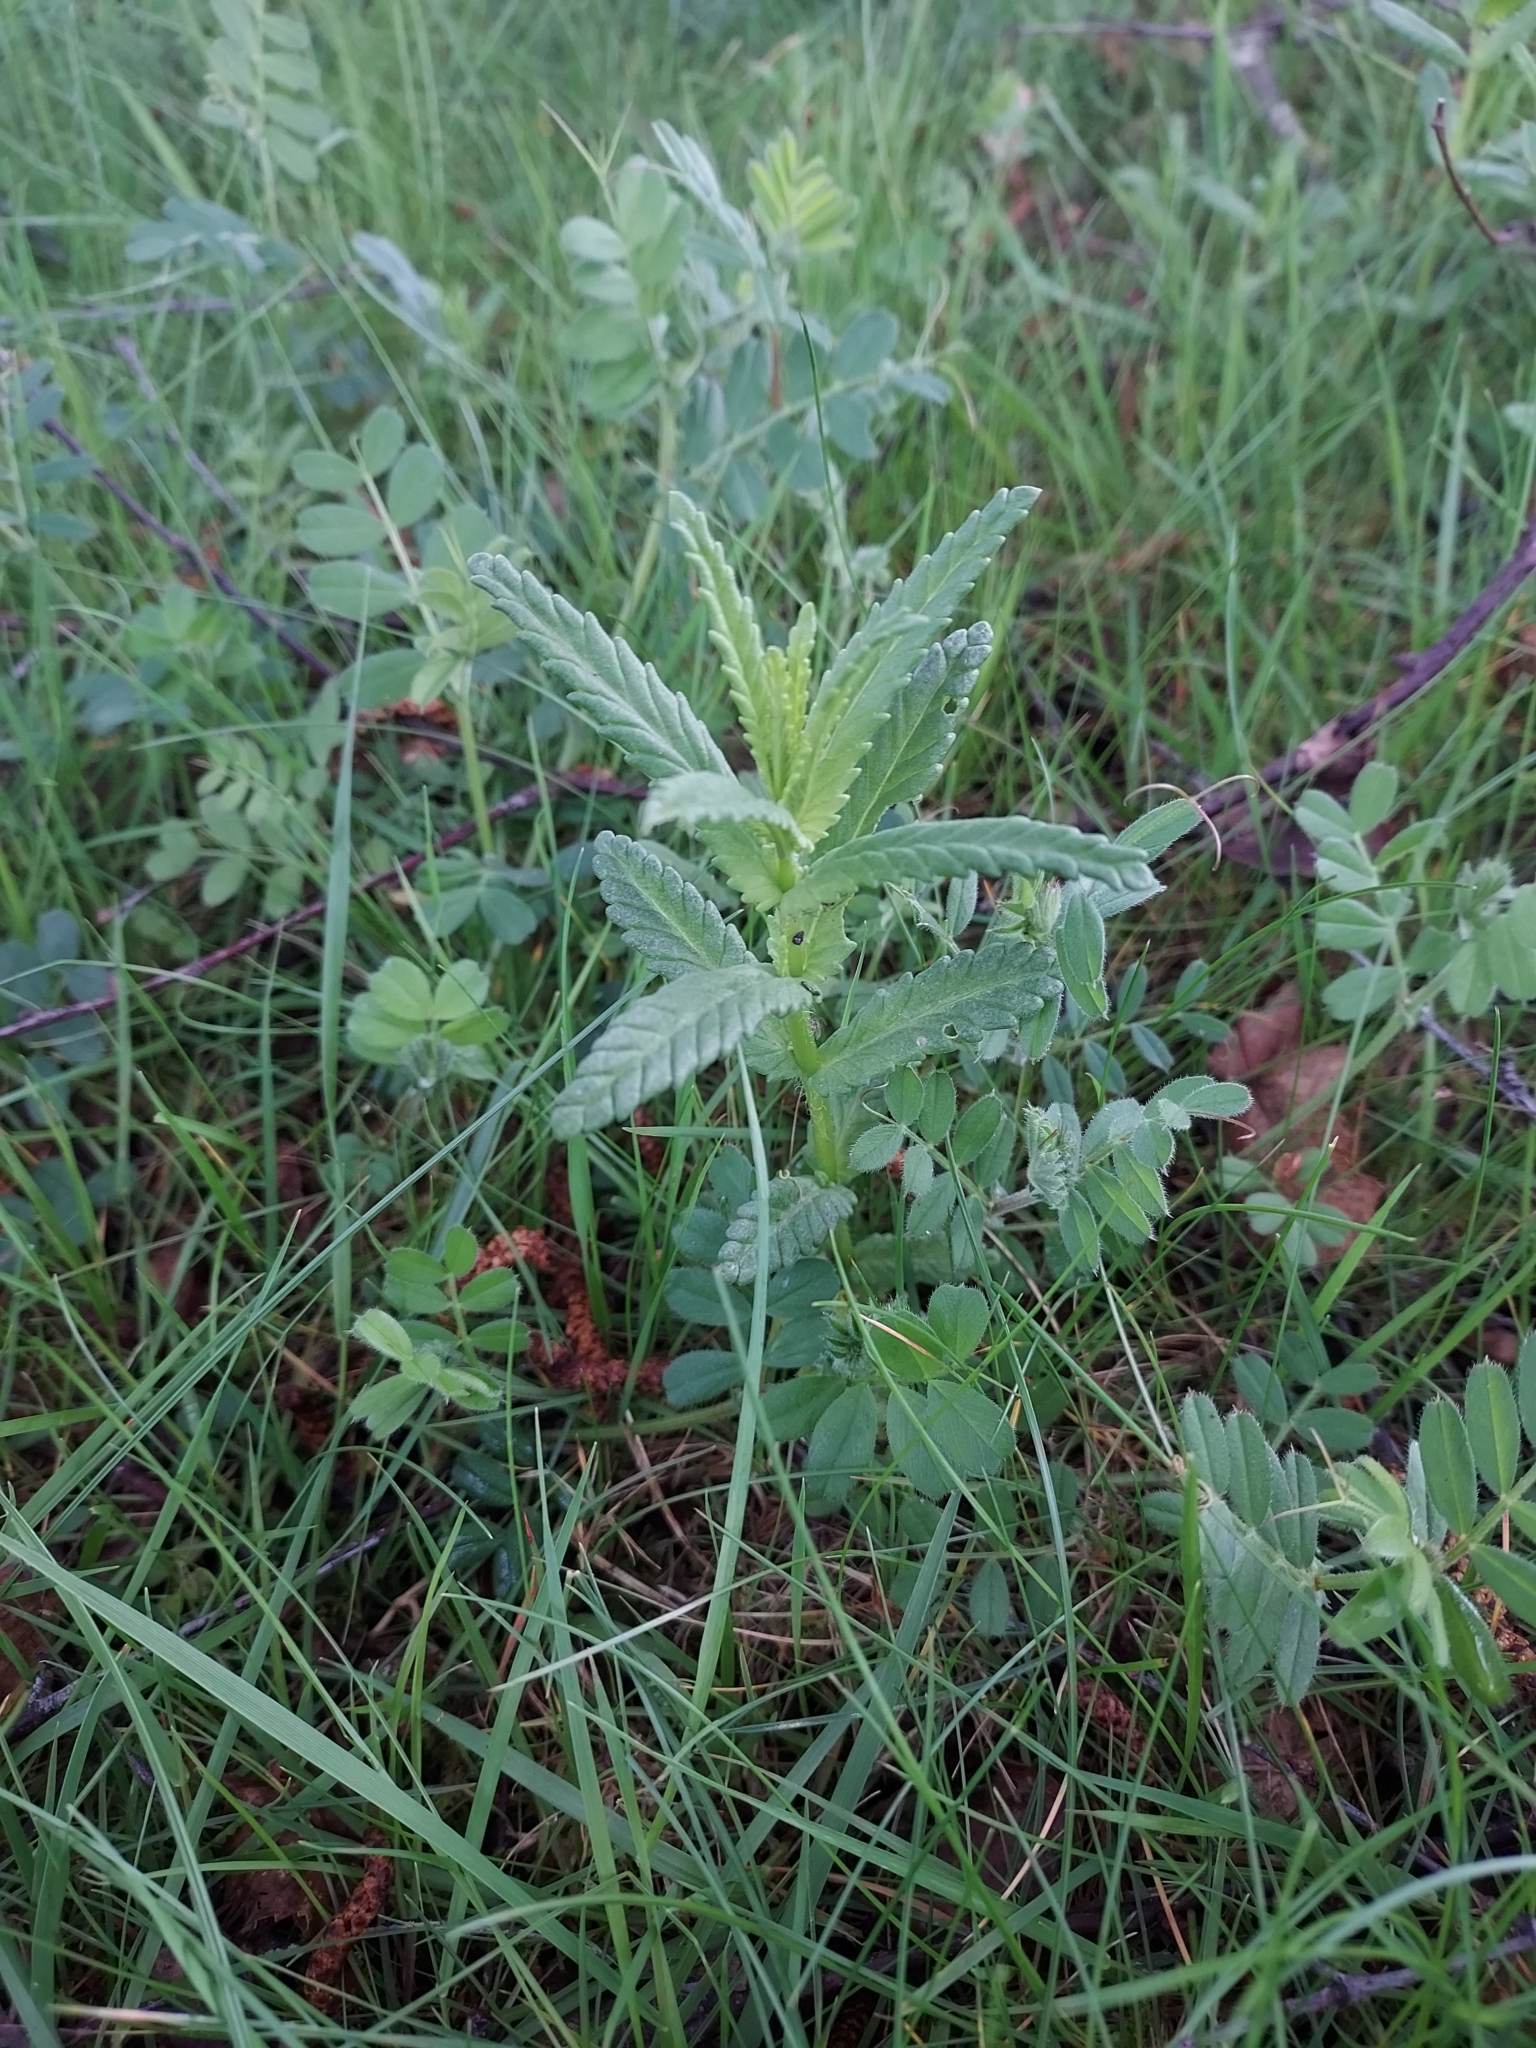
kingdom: Plantae
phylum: Tracheophyta
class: Magnoliopsida
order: Lamiales
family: Orobanchaceae
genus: Rhinanthus
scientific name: Rhinanthus minor
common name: Yellow-rattle
